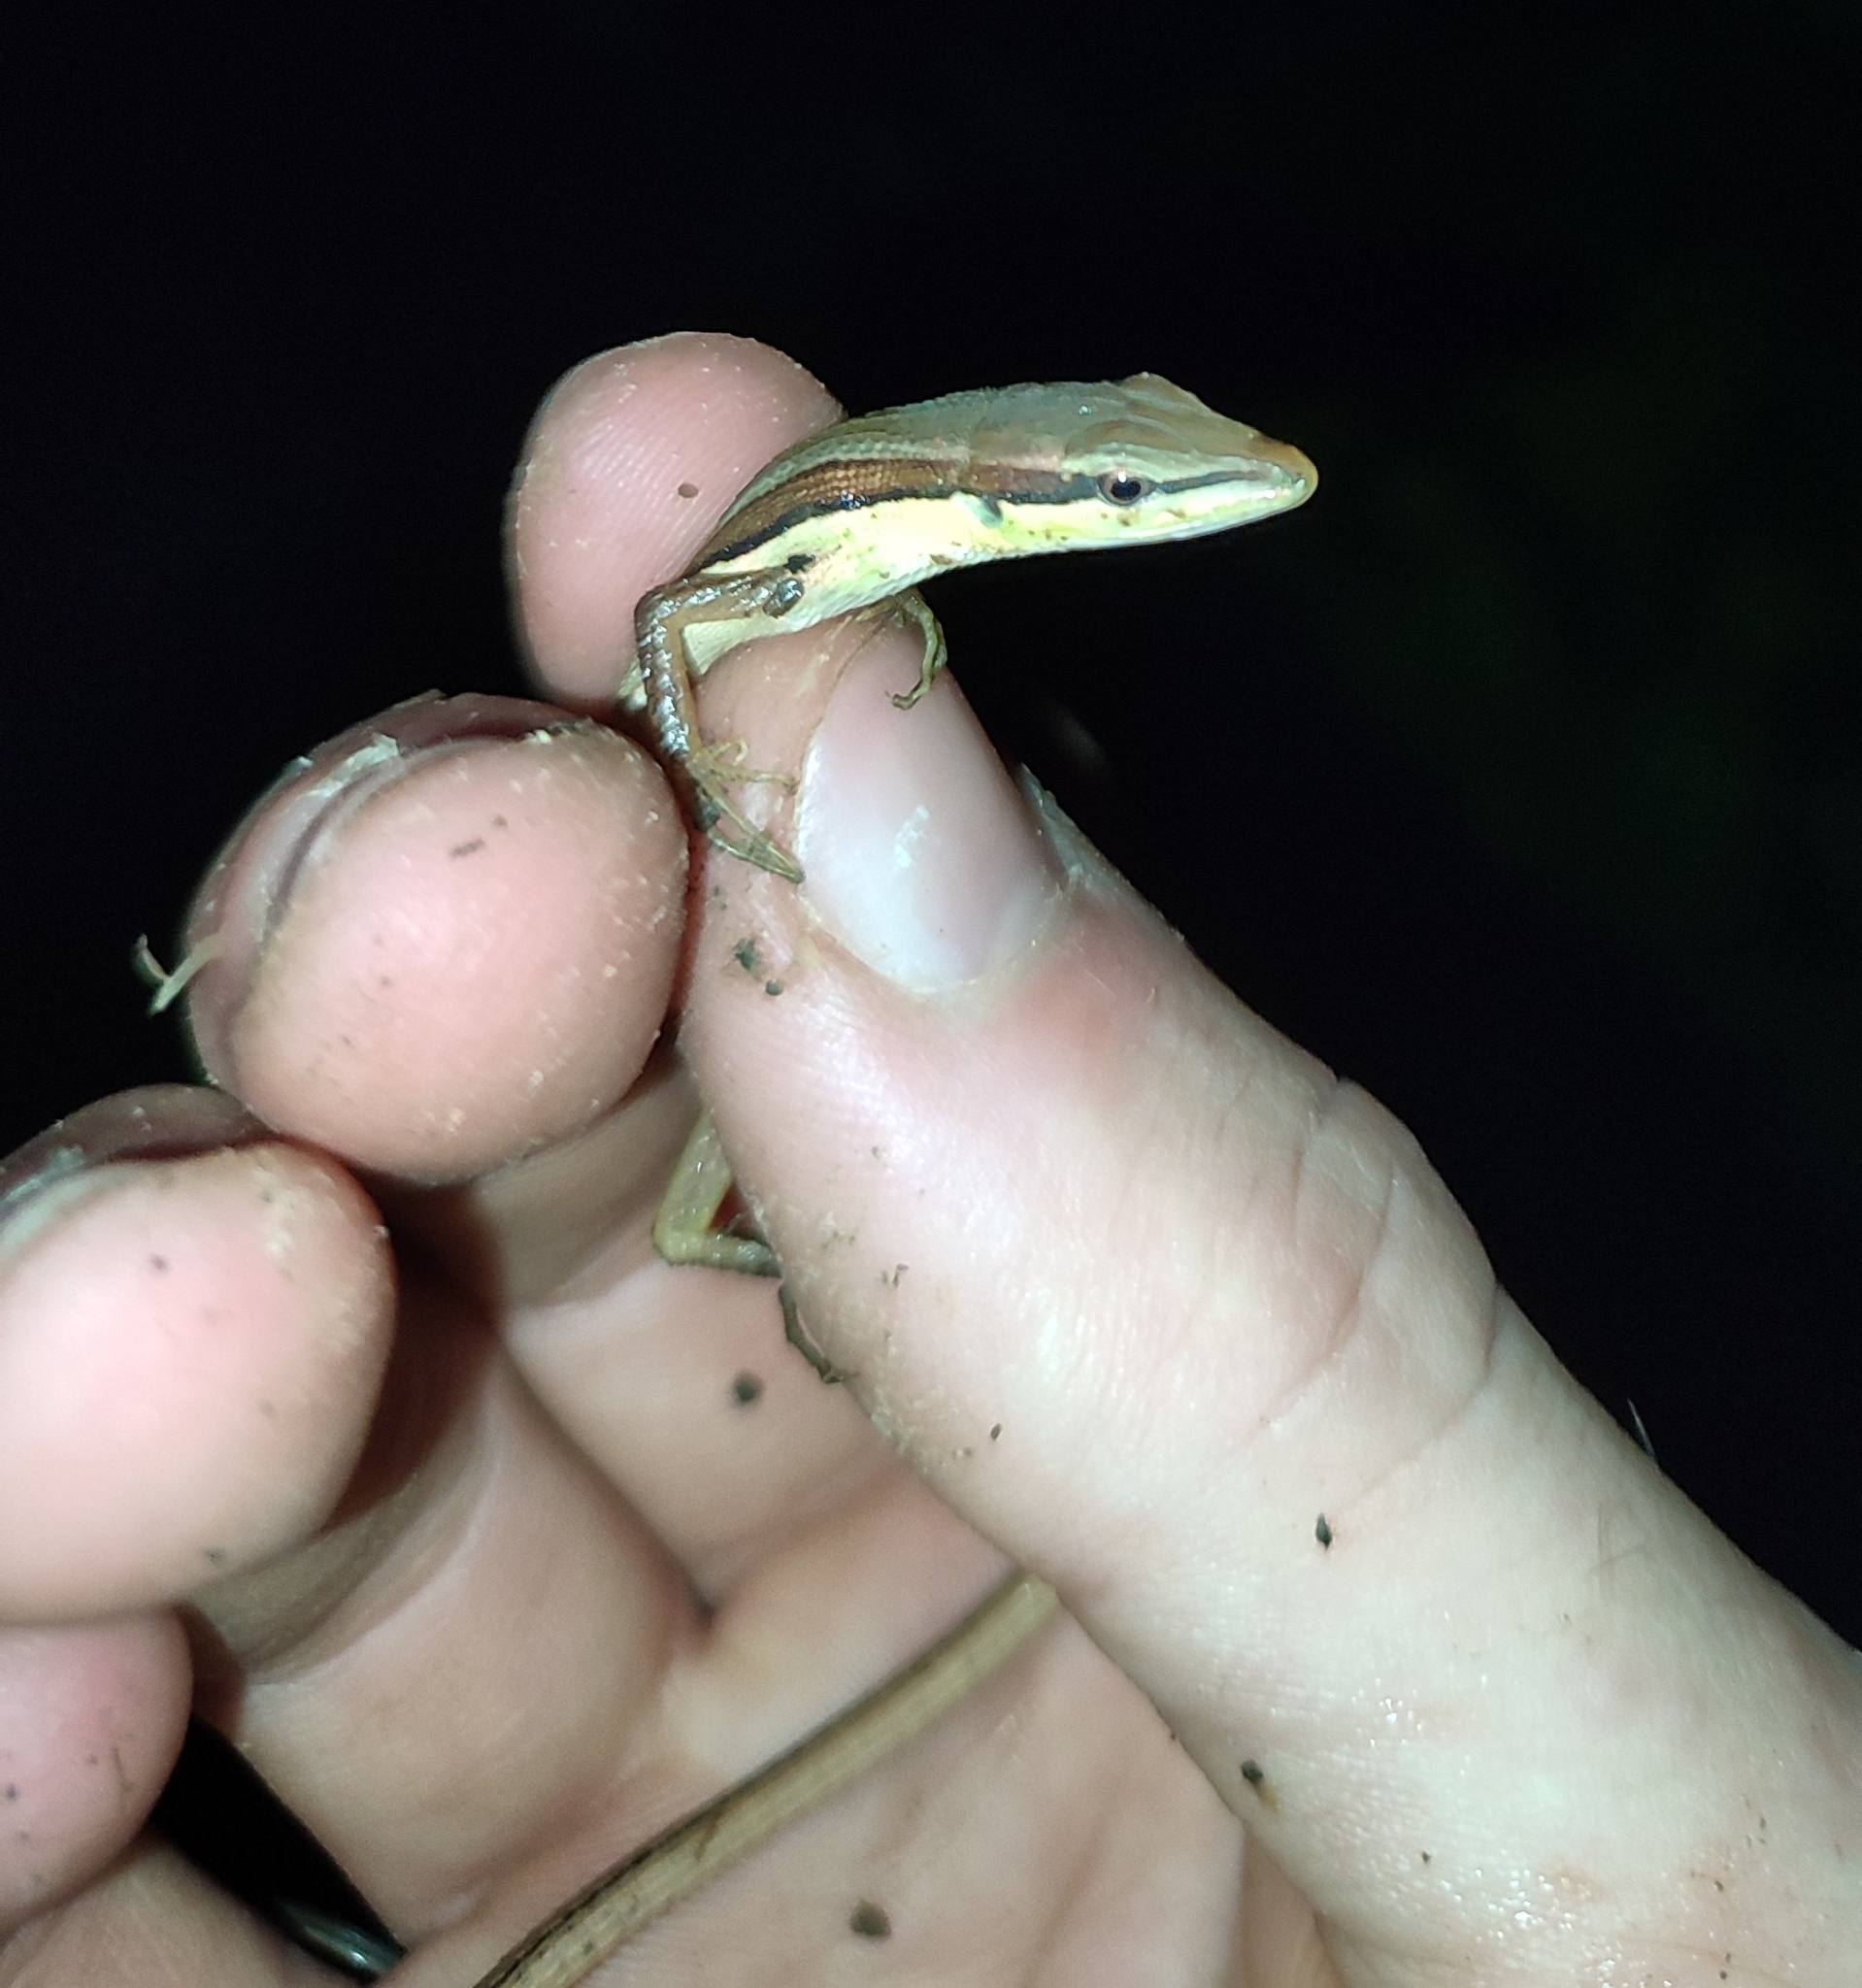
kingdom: Animalia
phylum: Chordata
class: Squamata
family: Lacertidae
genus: Takydromus
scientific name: Takydromus sexlineatus
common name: Asian grass lizard
